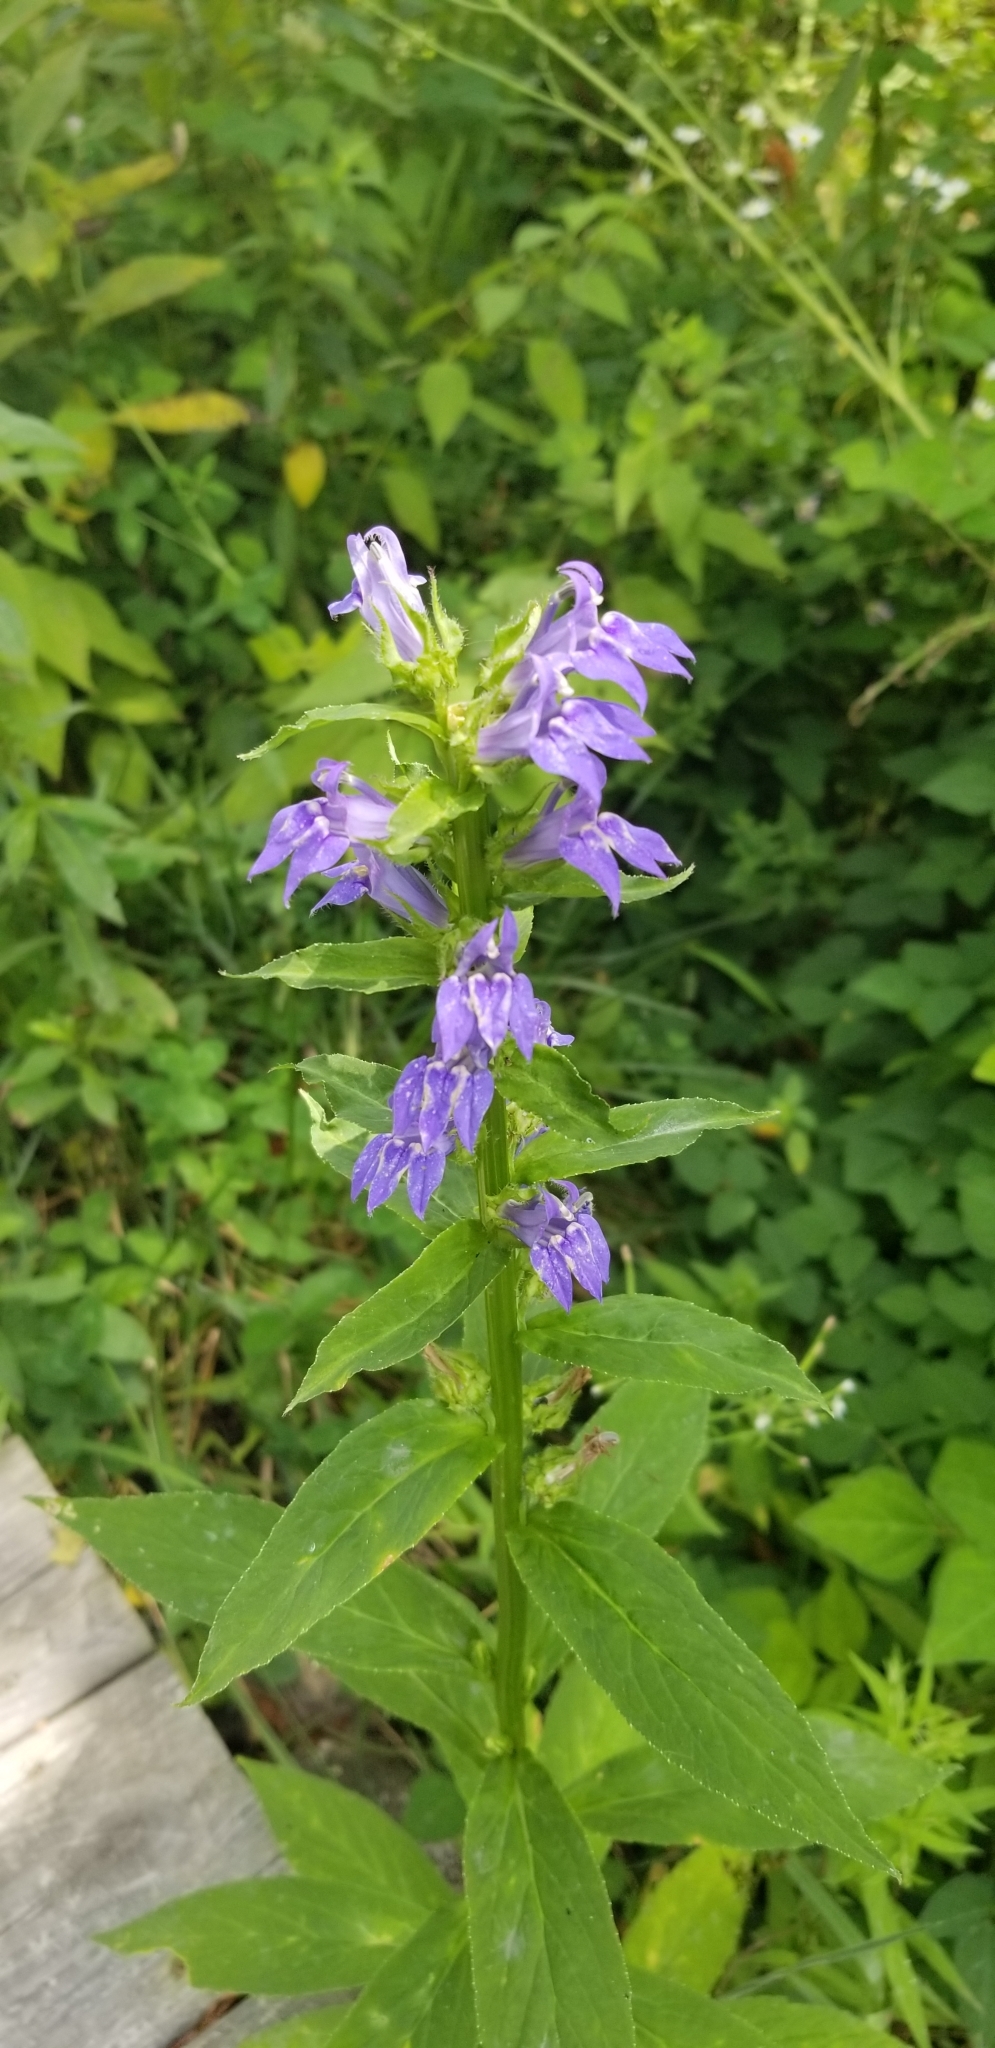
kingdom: Plantae
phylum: Tracheophyta
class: Magnoliopsida
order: Asterales
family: Campanulaceae
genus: Lobelia
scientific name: Lobelia siphilitica
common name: Great lobelia
